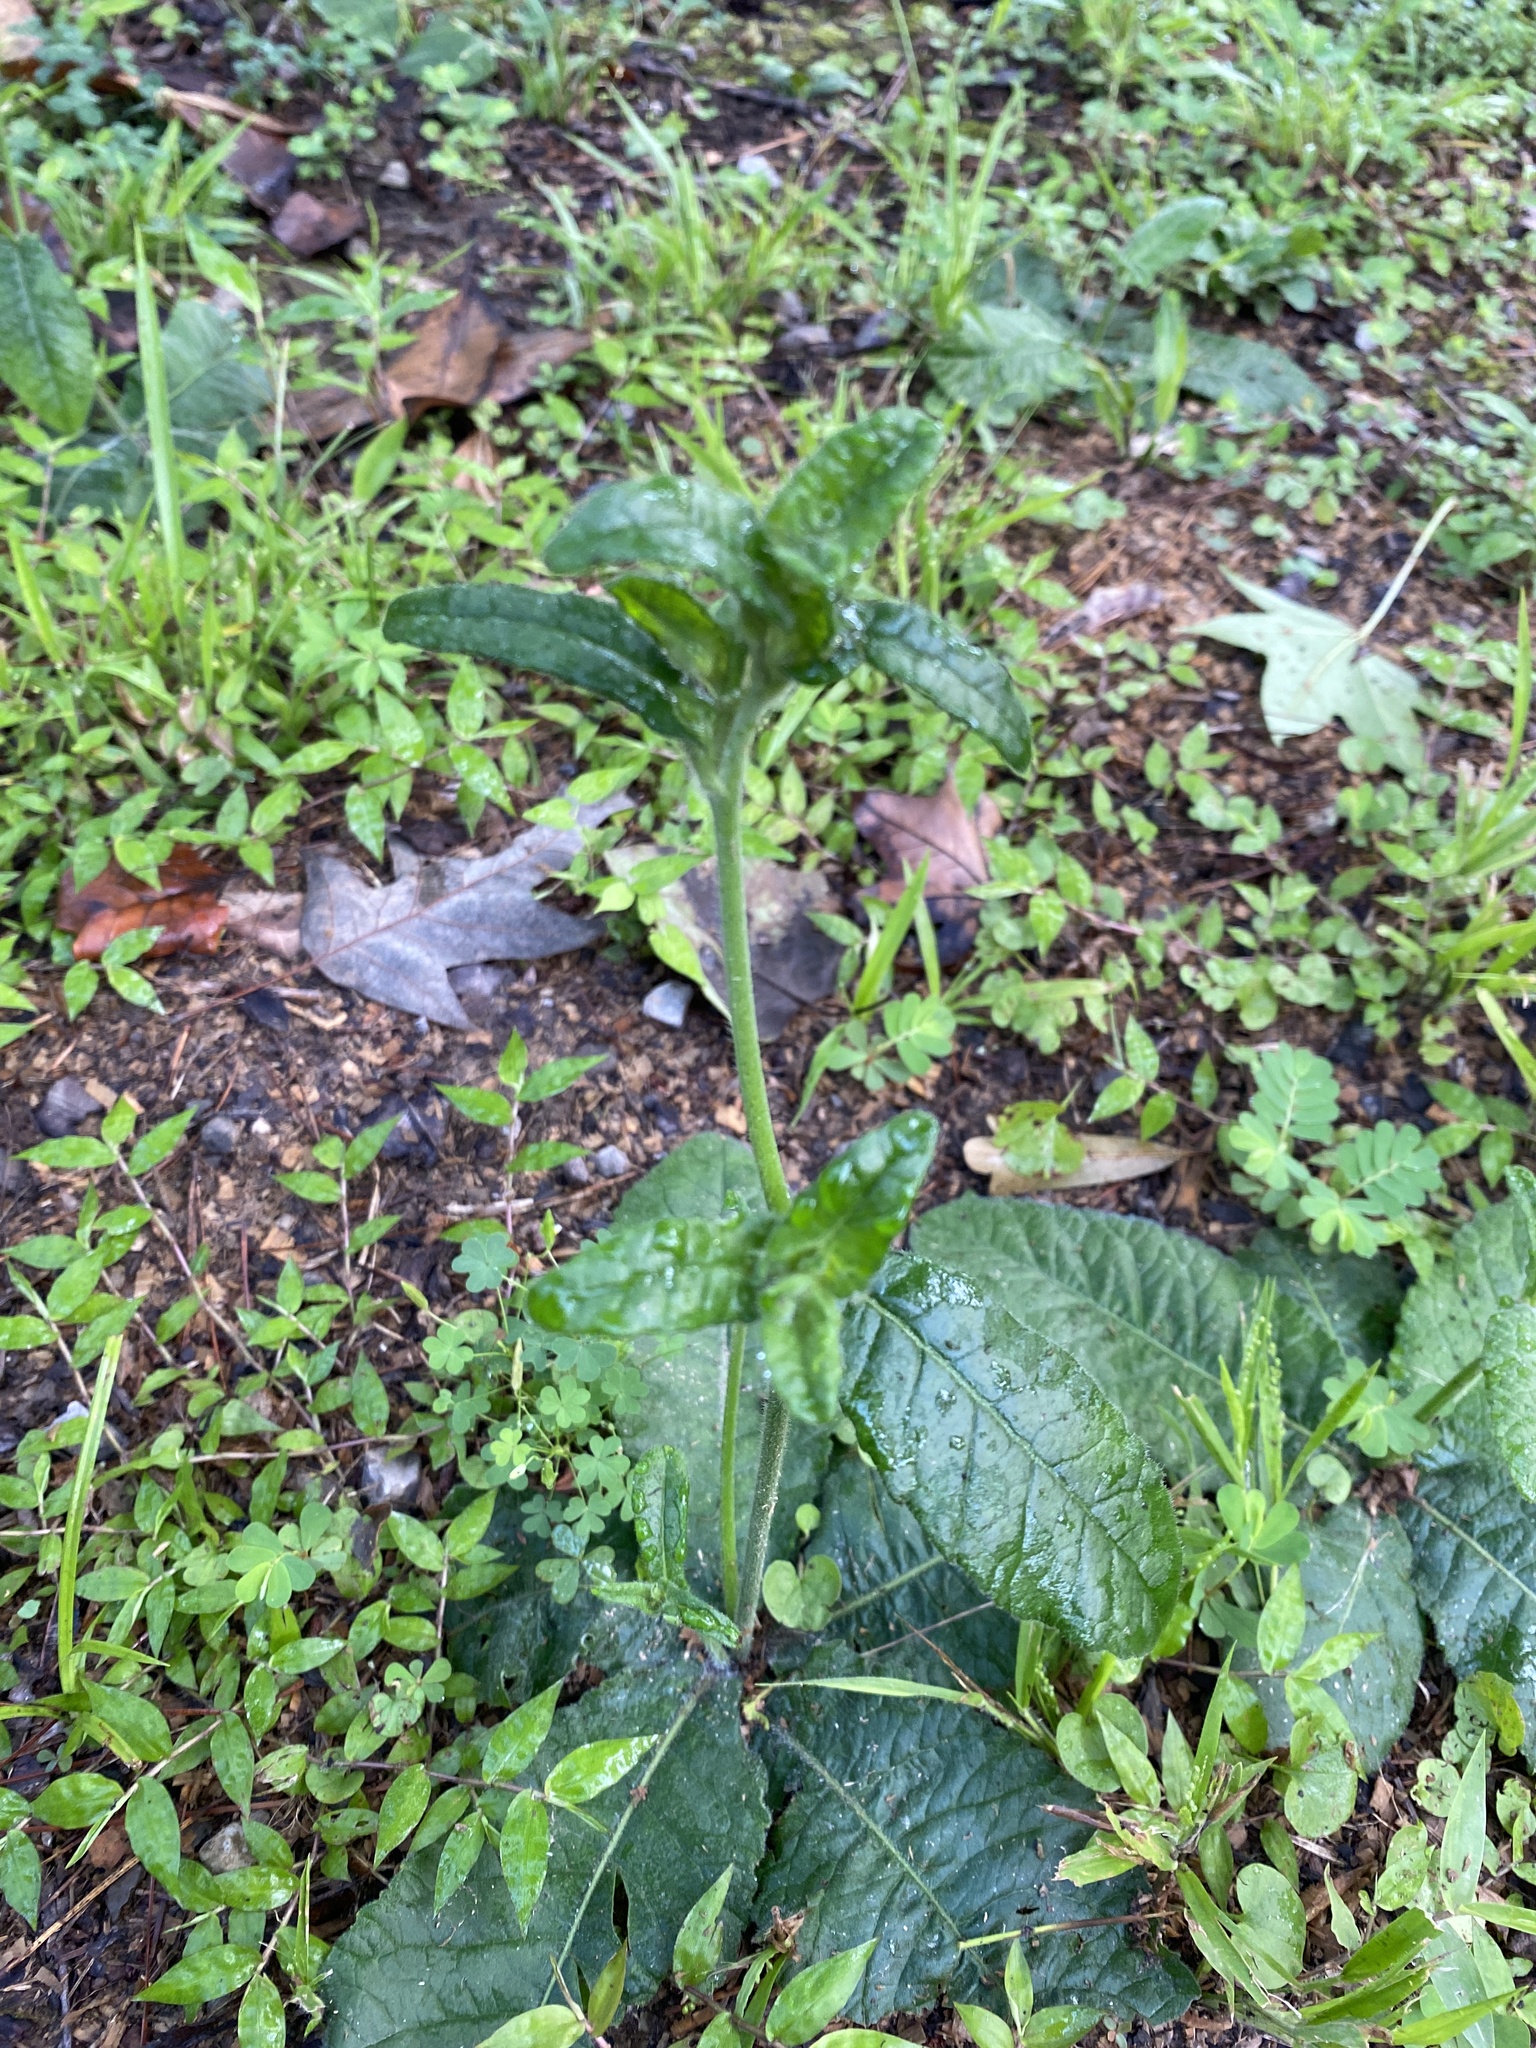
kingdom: Plantae
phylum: Tracheophyta
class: Magnoliopsida
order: Asterales
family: Asteraceae
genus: Elephantopus
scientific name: Elephantopus tomentosus
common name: Tobacco-weed
